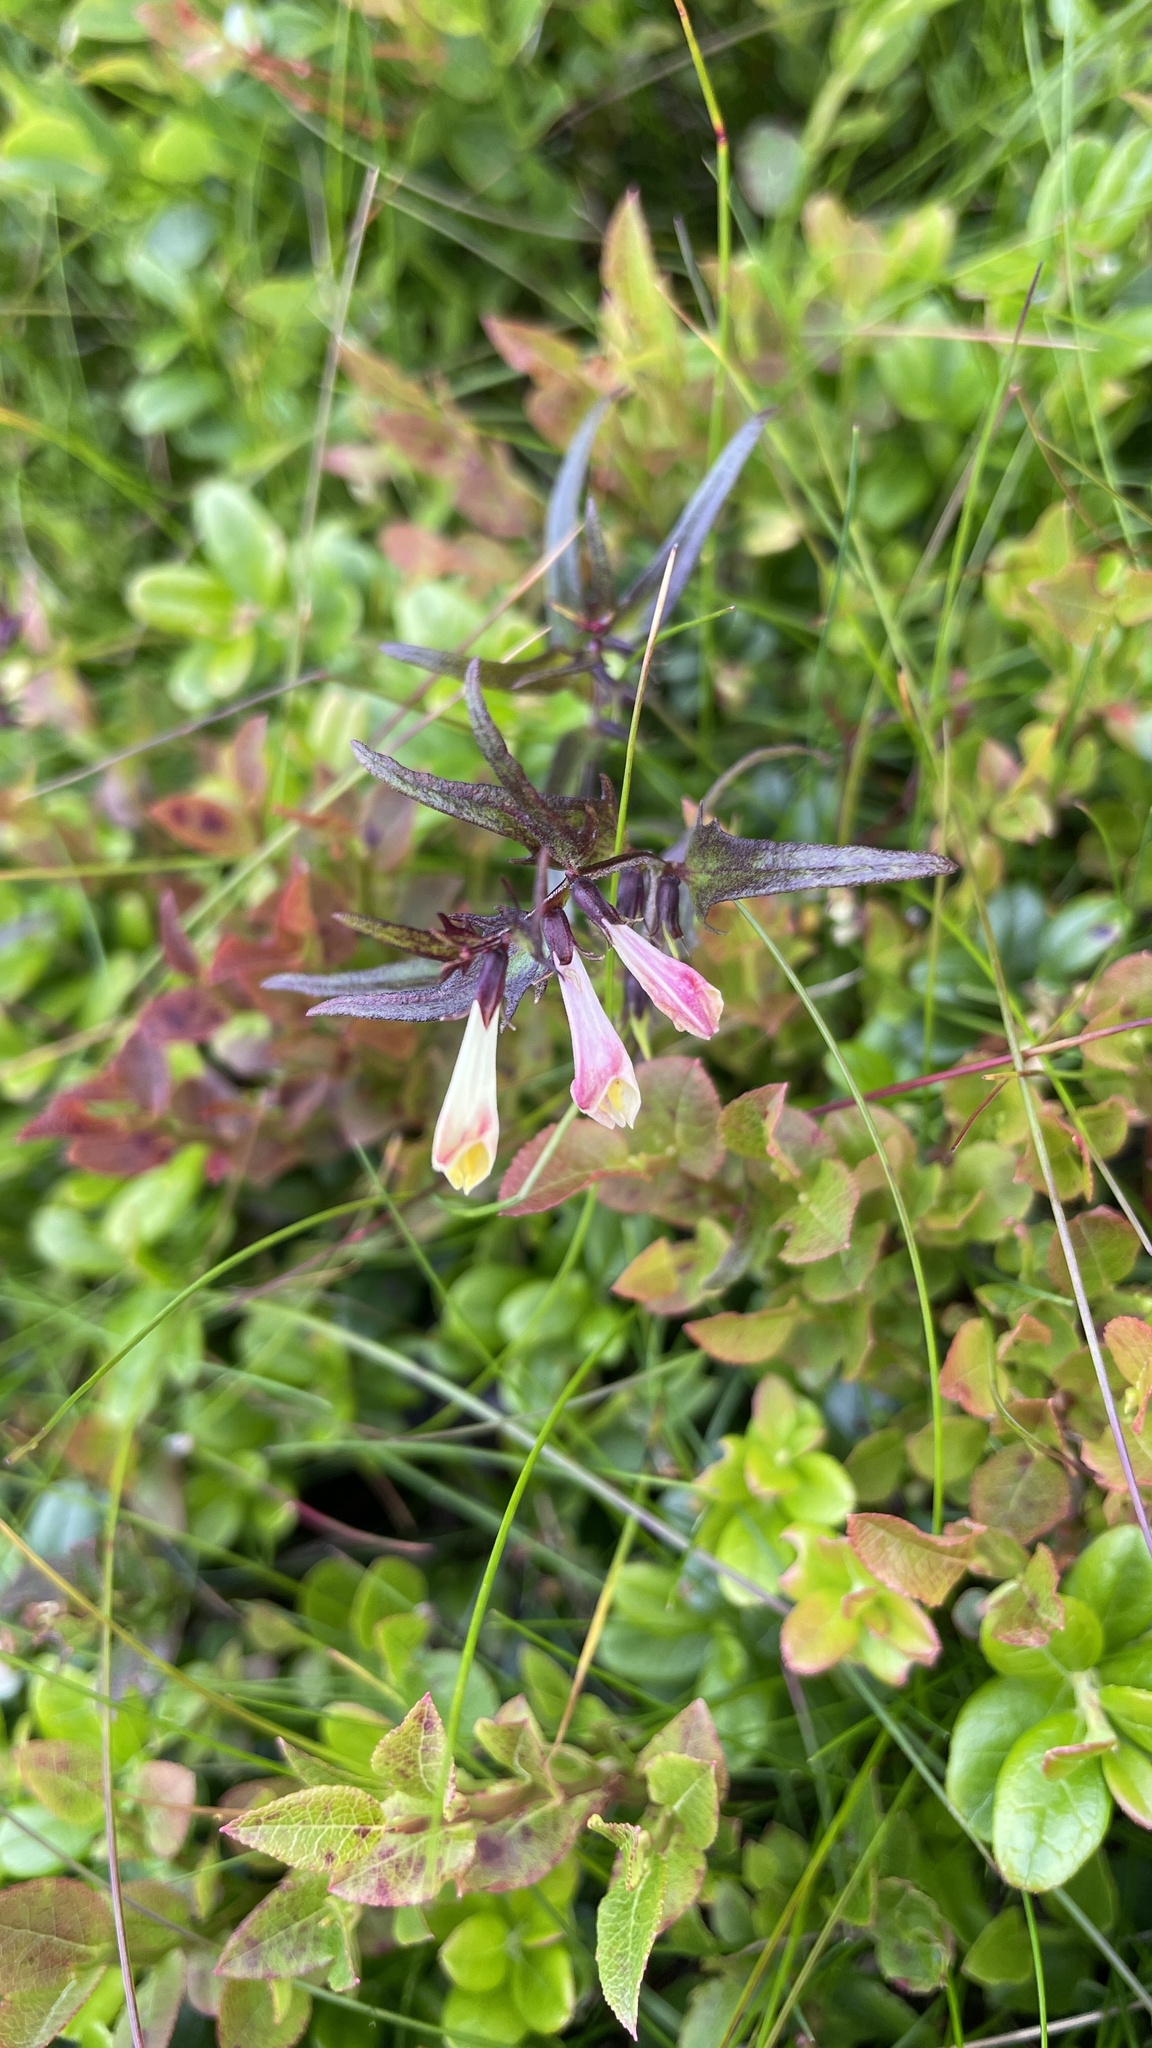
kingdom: Plantae
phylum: Tracheophyta
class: Magnoliopsida
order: Lamiales
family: Orobanchaceae
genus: Melampyrum
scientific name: Melampyrum pratense
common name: Common cow-wheat
